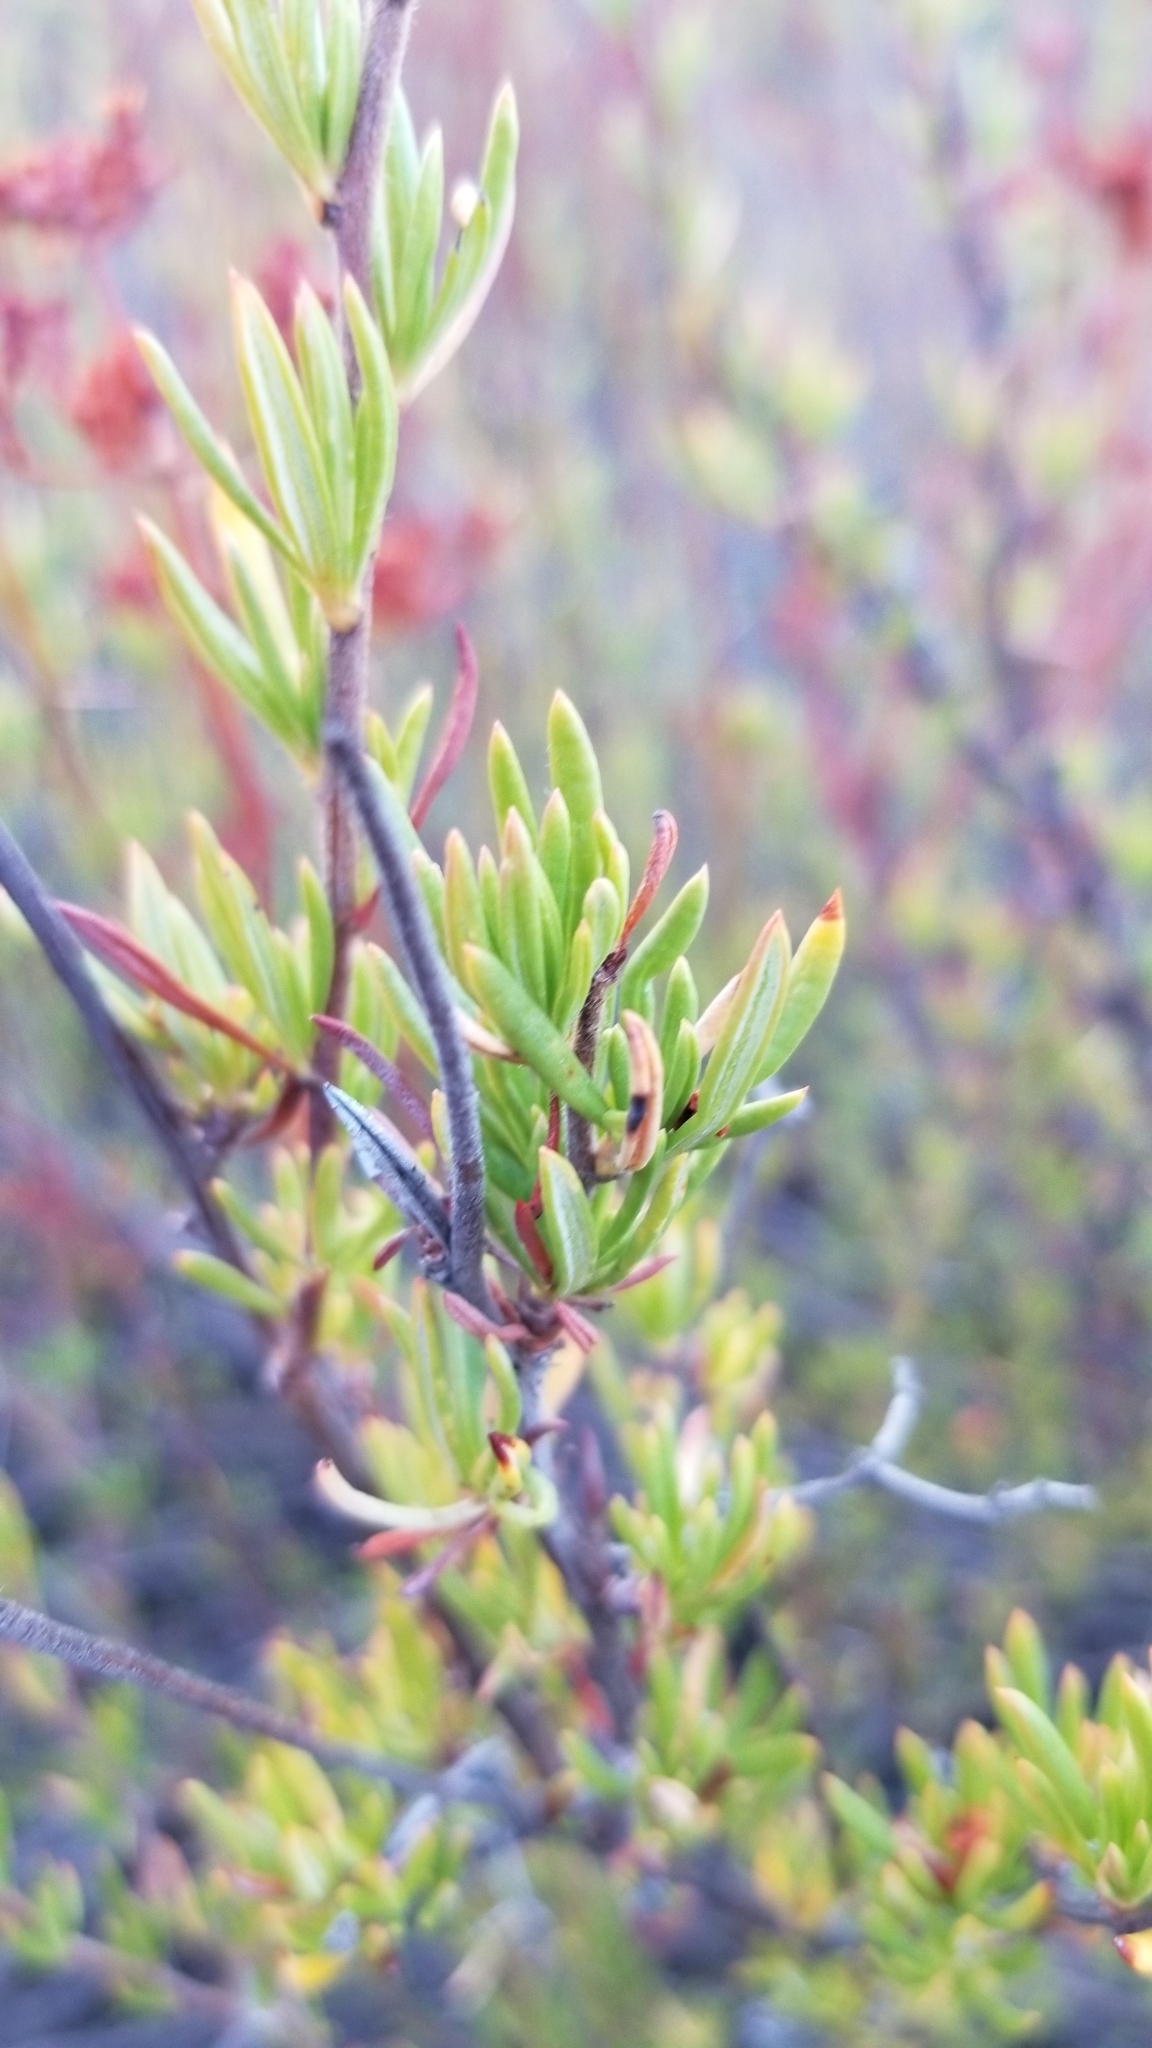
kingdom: Plantae
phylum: Tracheophyta
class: Magnoliopsida
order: Caryophyllales
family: Polygonaceae
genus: Eriogonum
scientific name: Eriogonum fasciculatum
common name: California wild buckwheat
